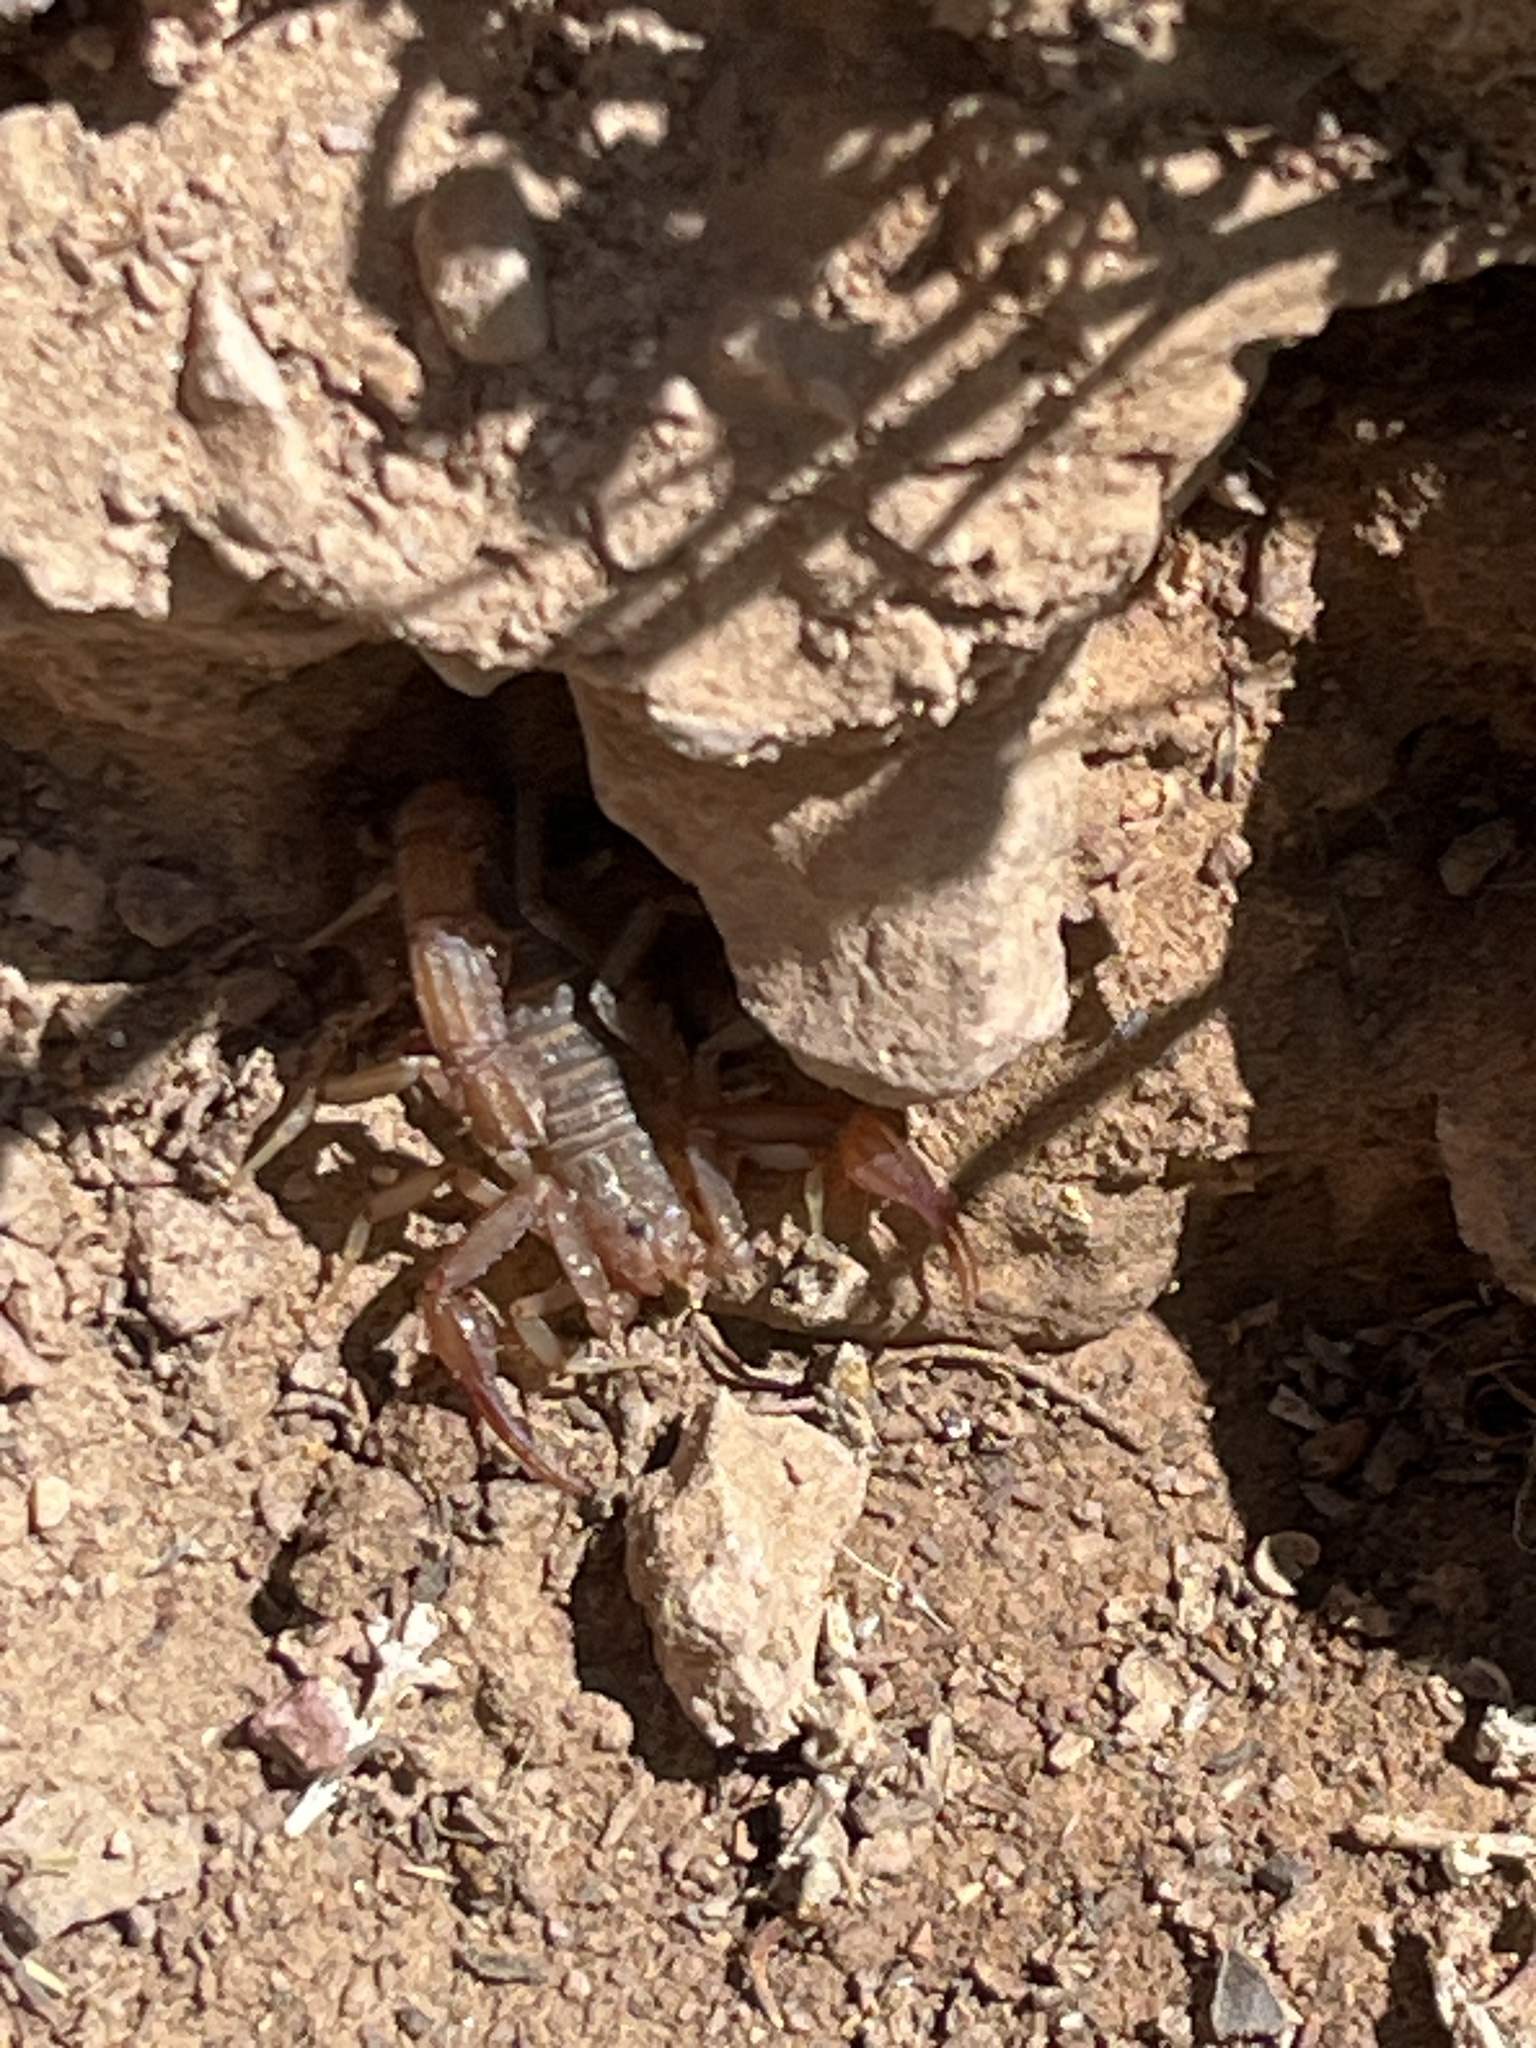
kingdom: Animalia
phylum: Arthropoda
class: Arachnida
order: Scorpiones
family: Vaejovidae
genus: Stahnkeus
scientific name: Stahnkeus subtilimanus
